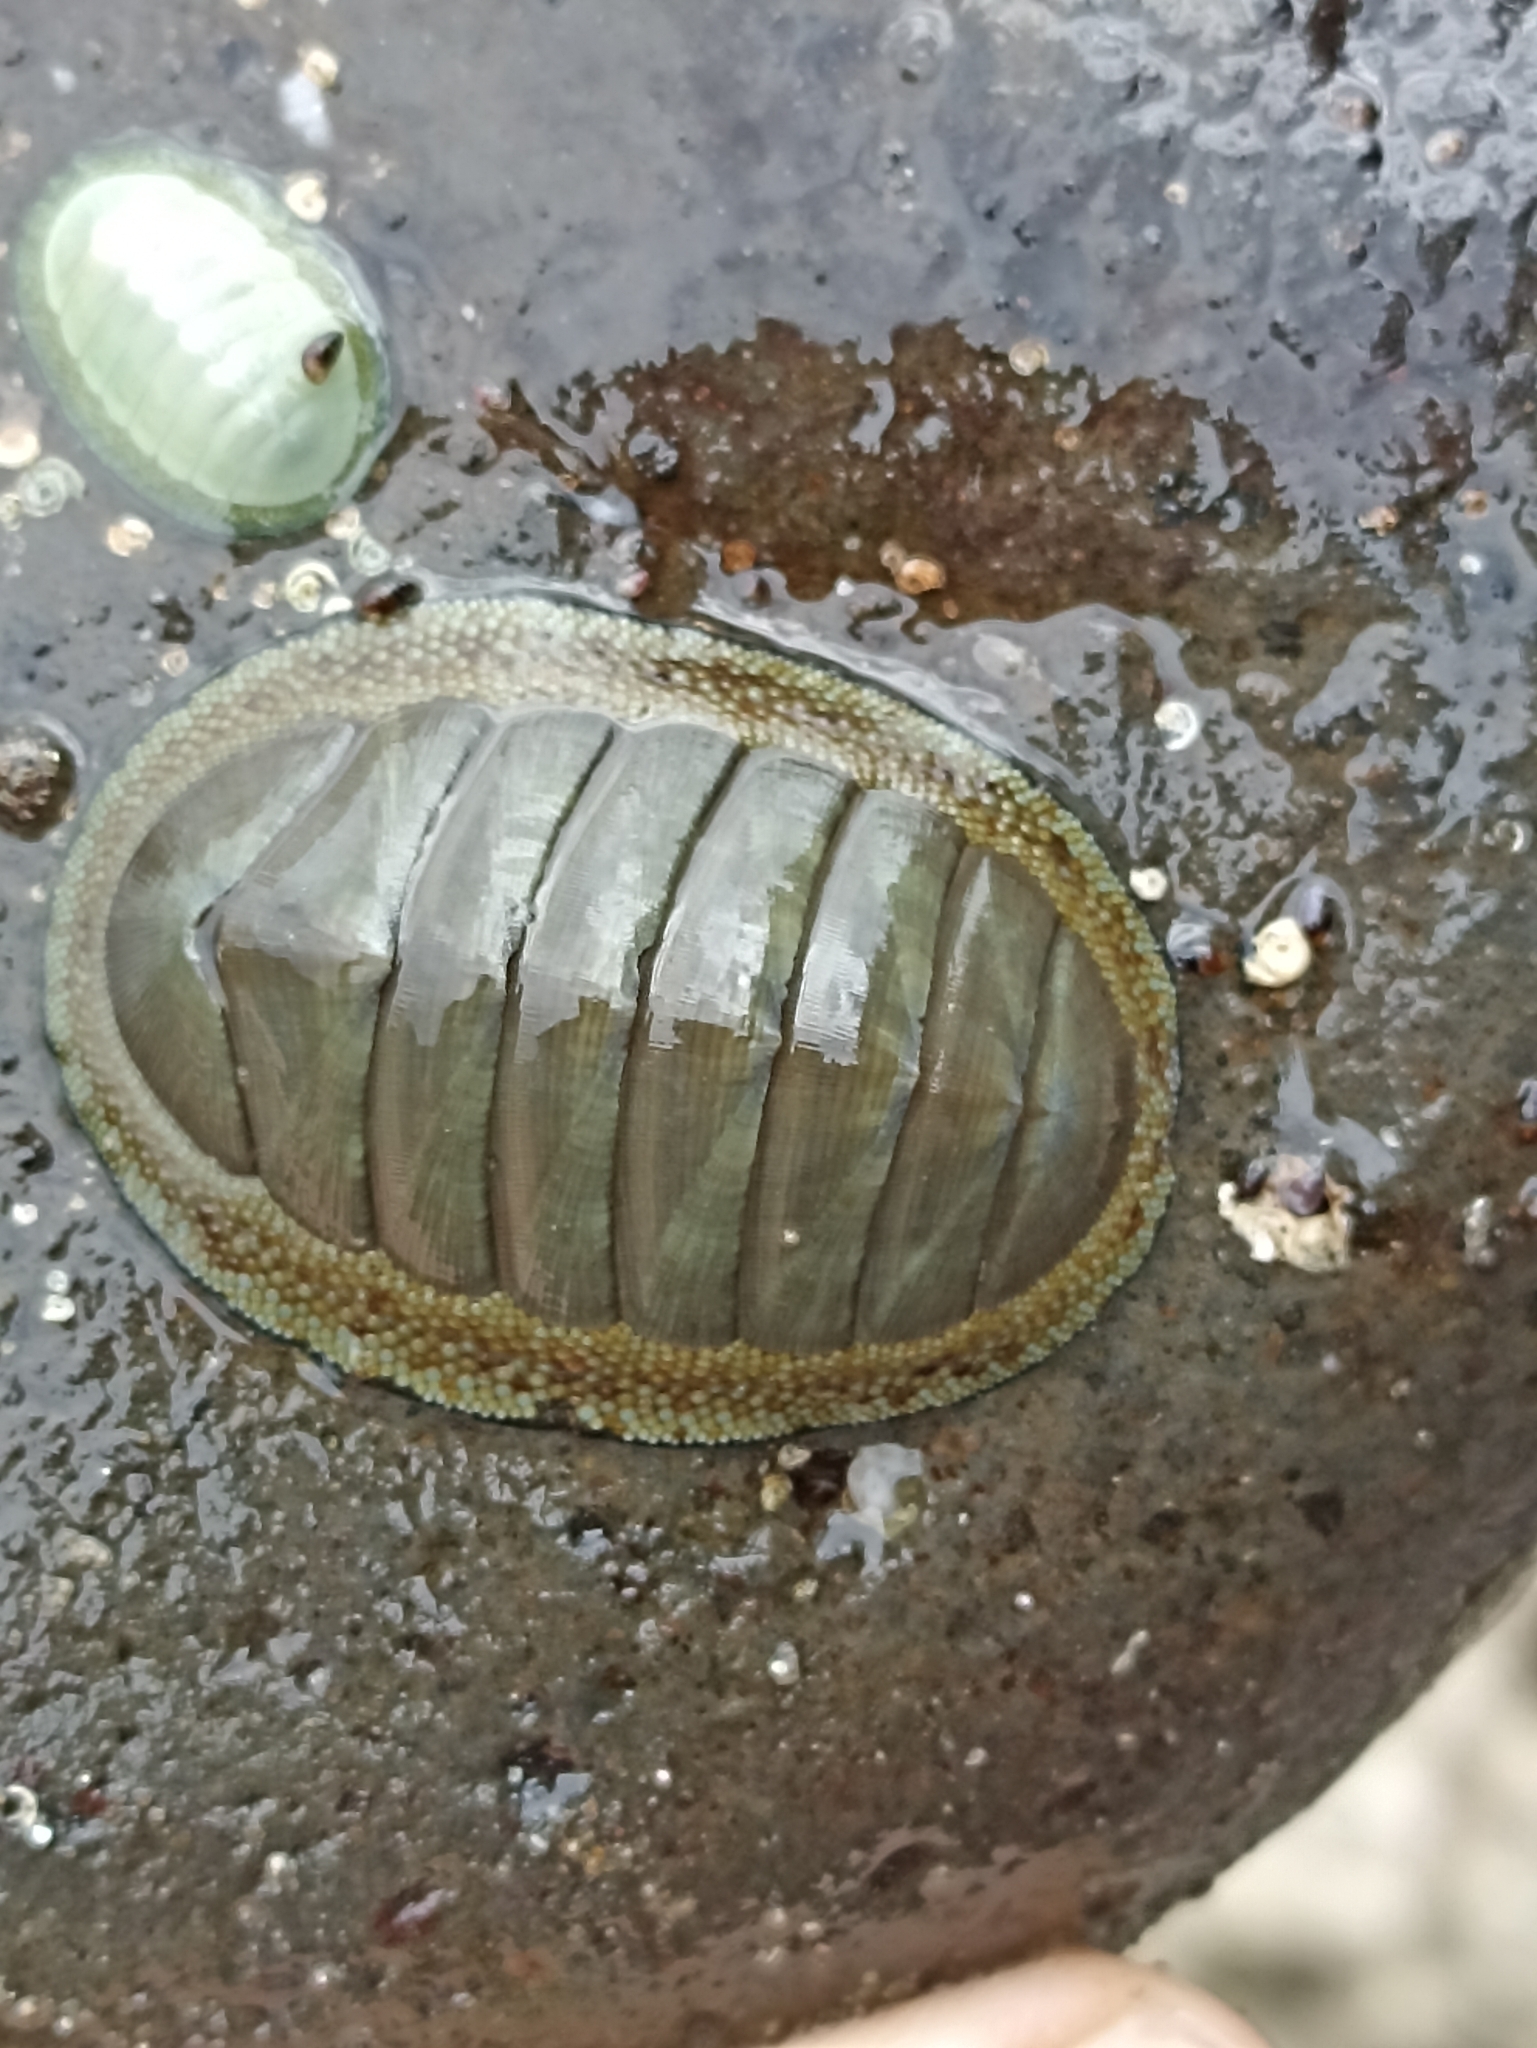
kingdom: Animalia
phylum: Mollusca
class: Polyplacophora
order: Chitonida
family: Chitonidae
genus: Chiton
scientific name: Chiton glaucus
